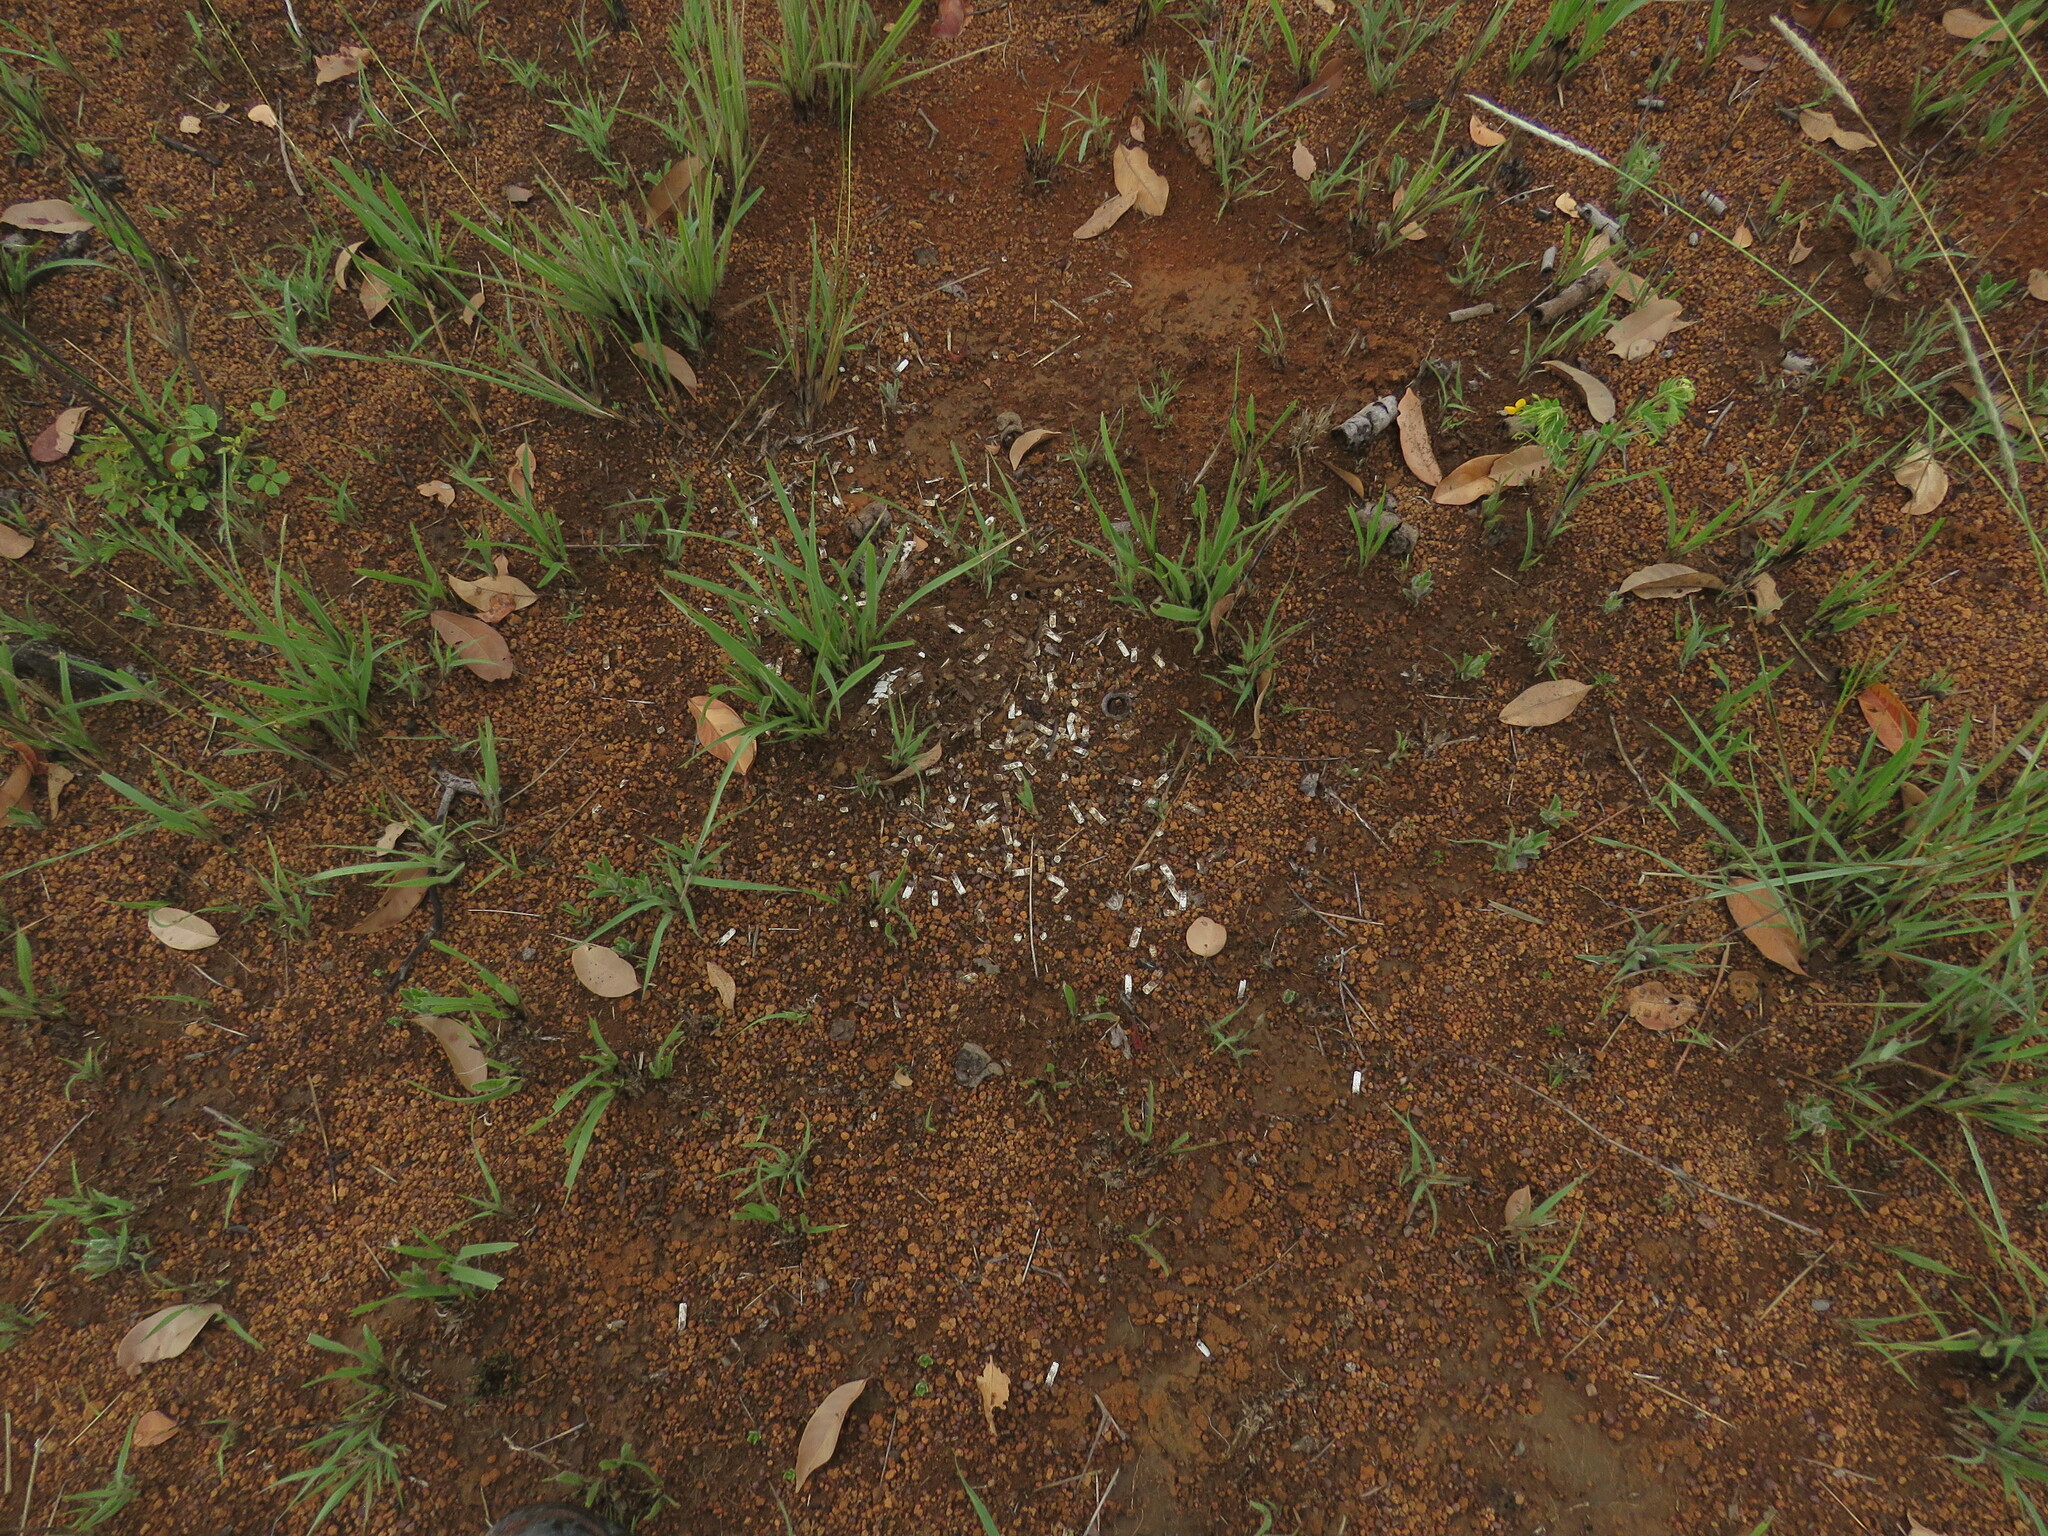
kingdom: Animalia
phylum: Chordata
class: Mammalia
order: Cingulata
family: Dasypodidae
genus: Euphractus
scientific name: Euphractus sexcinctus
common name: Six-banded armadillo
